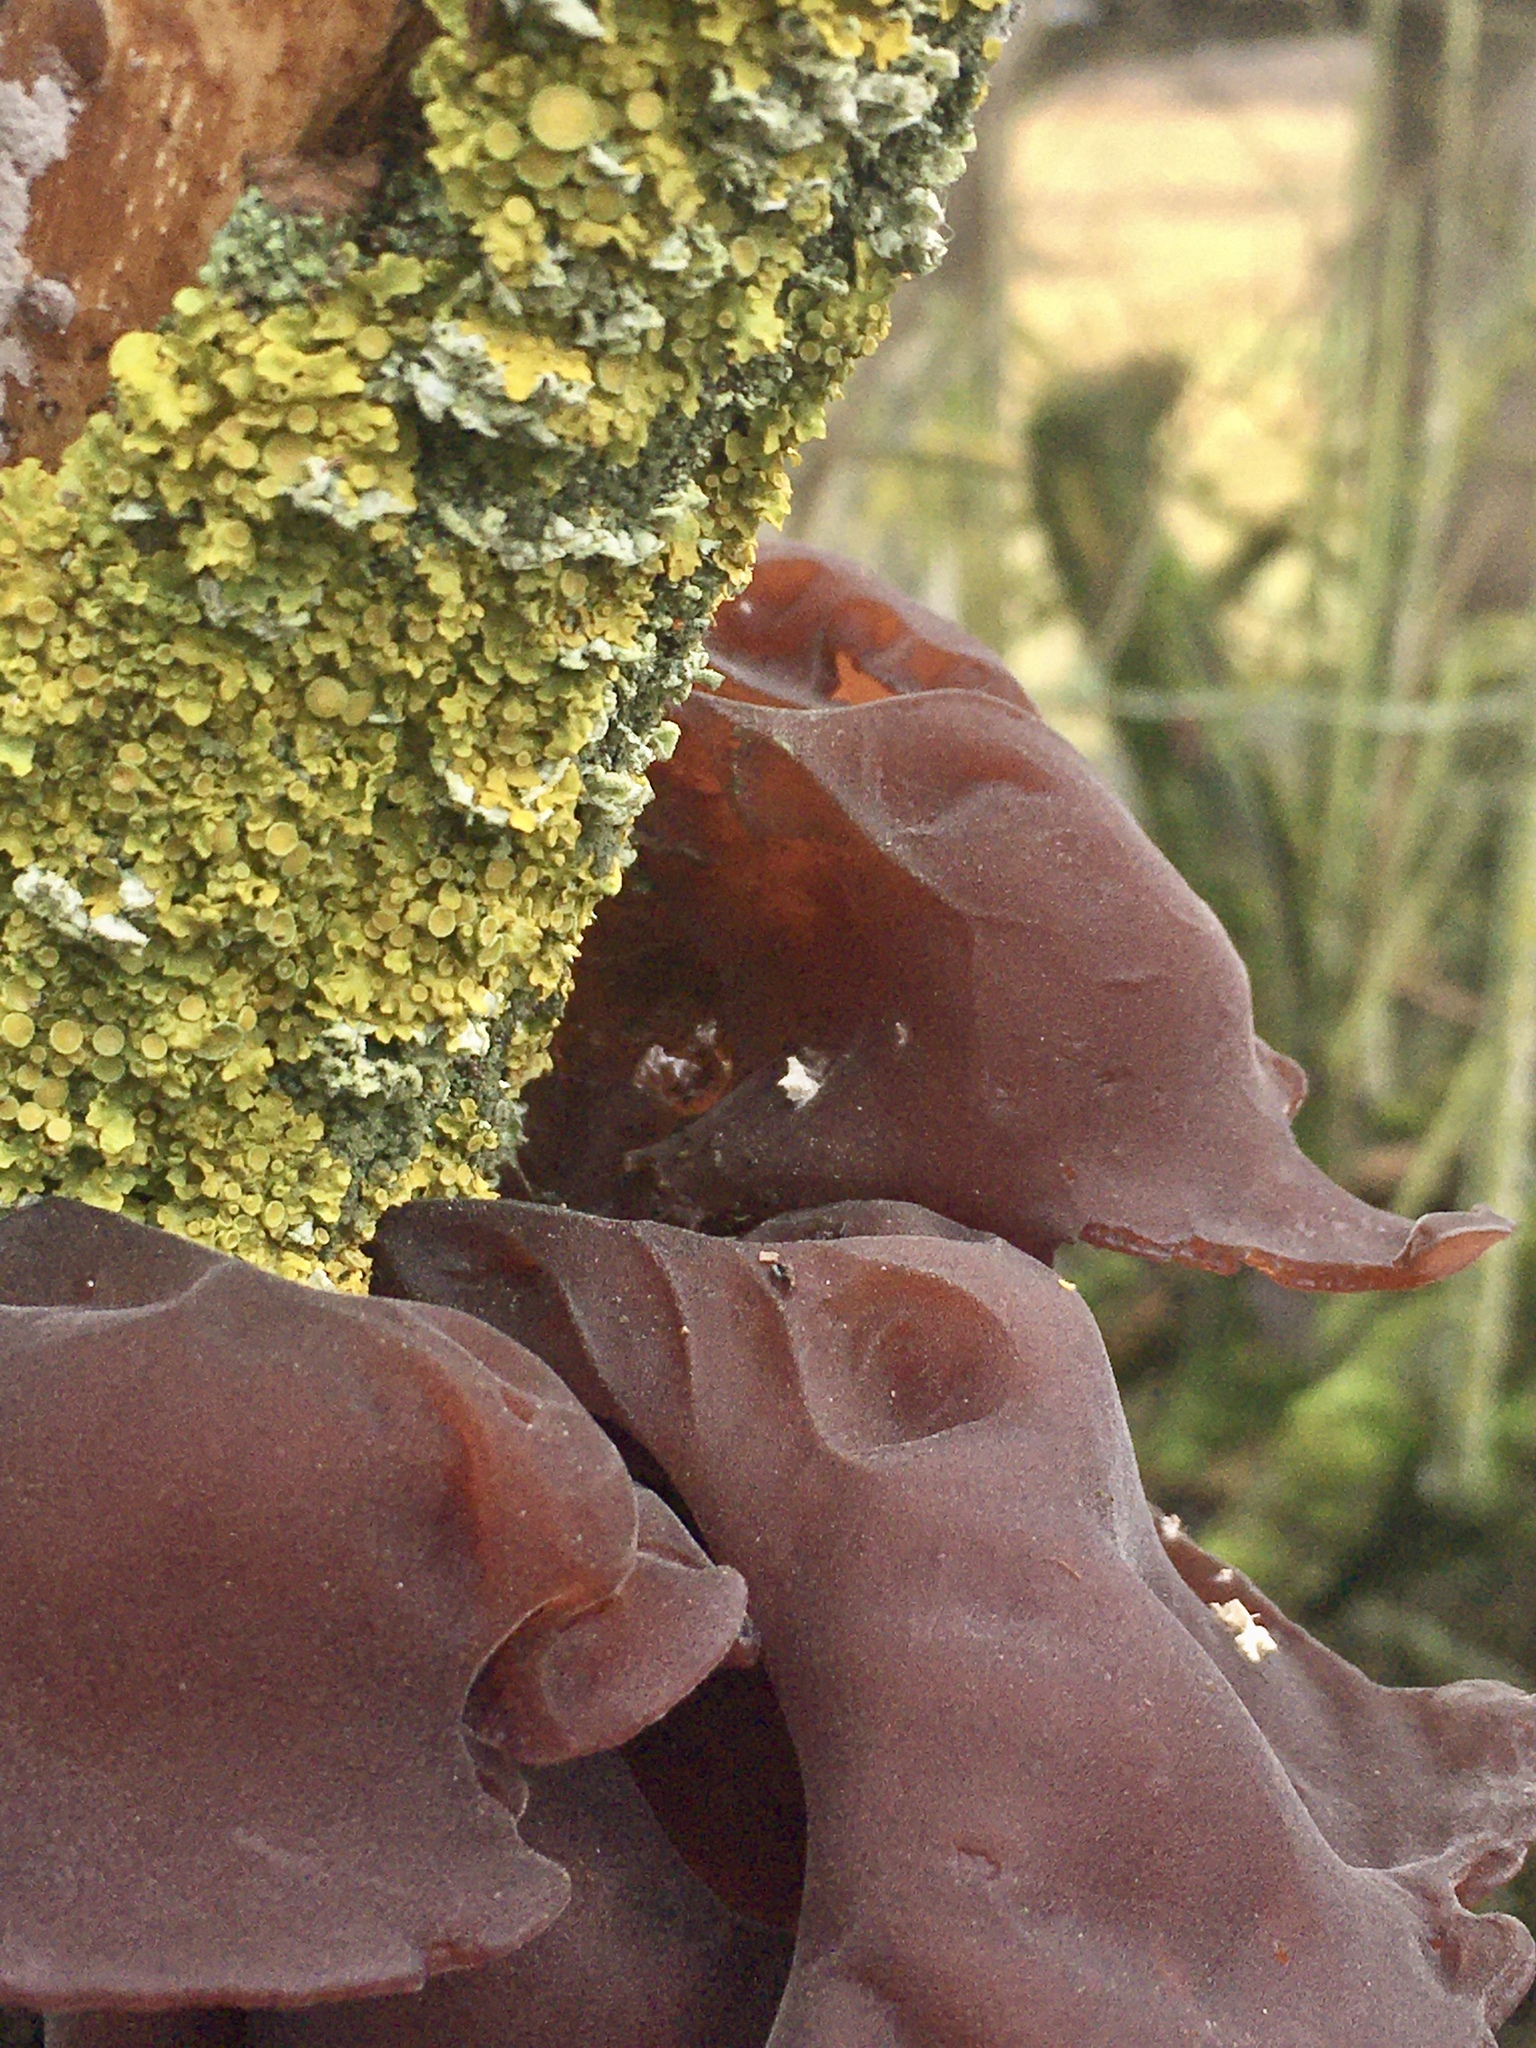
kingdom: Fungi
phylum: Basidiomycota
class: Agaricomycetes
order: Auriculariales
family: Auriculariaceae
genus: Auricularia
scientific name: Auricularia auricula-judae
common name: Jelly ear
